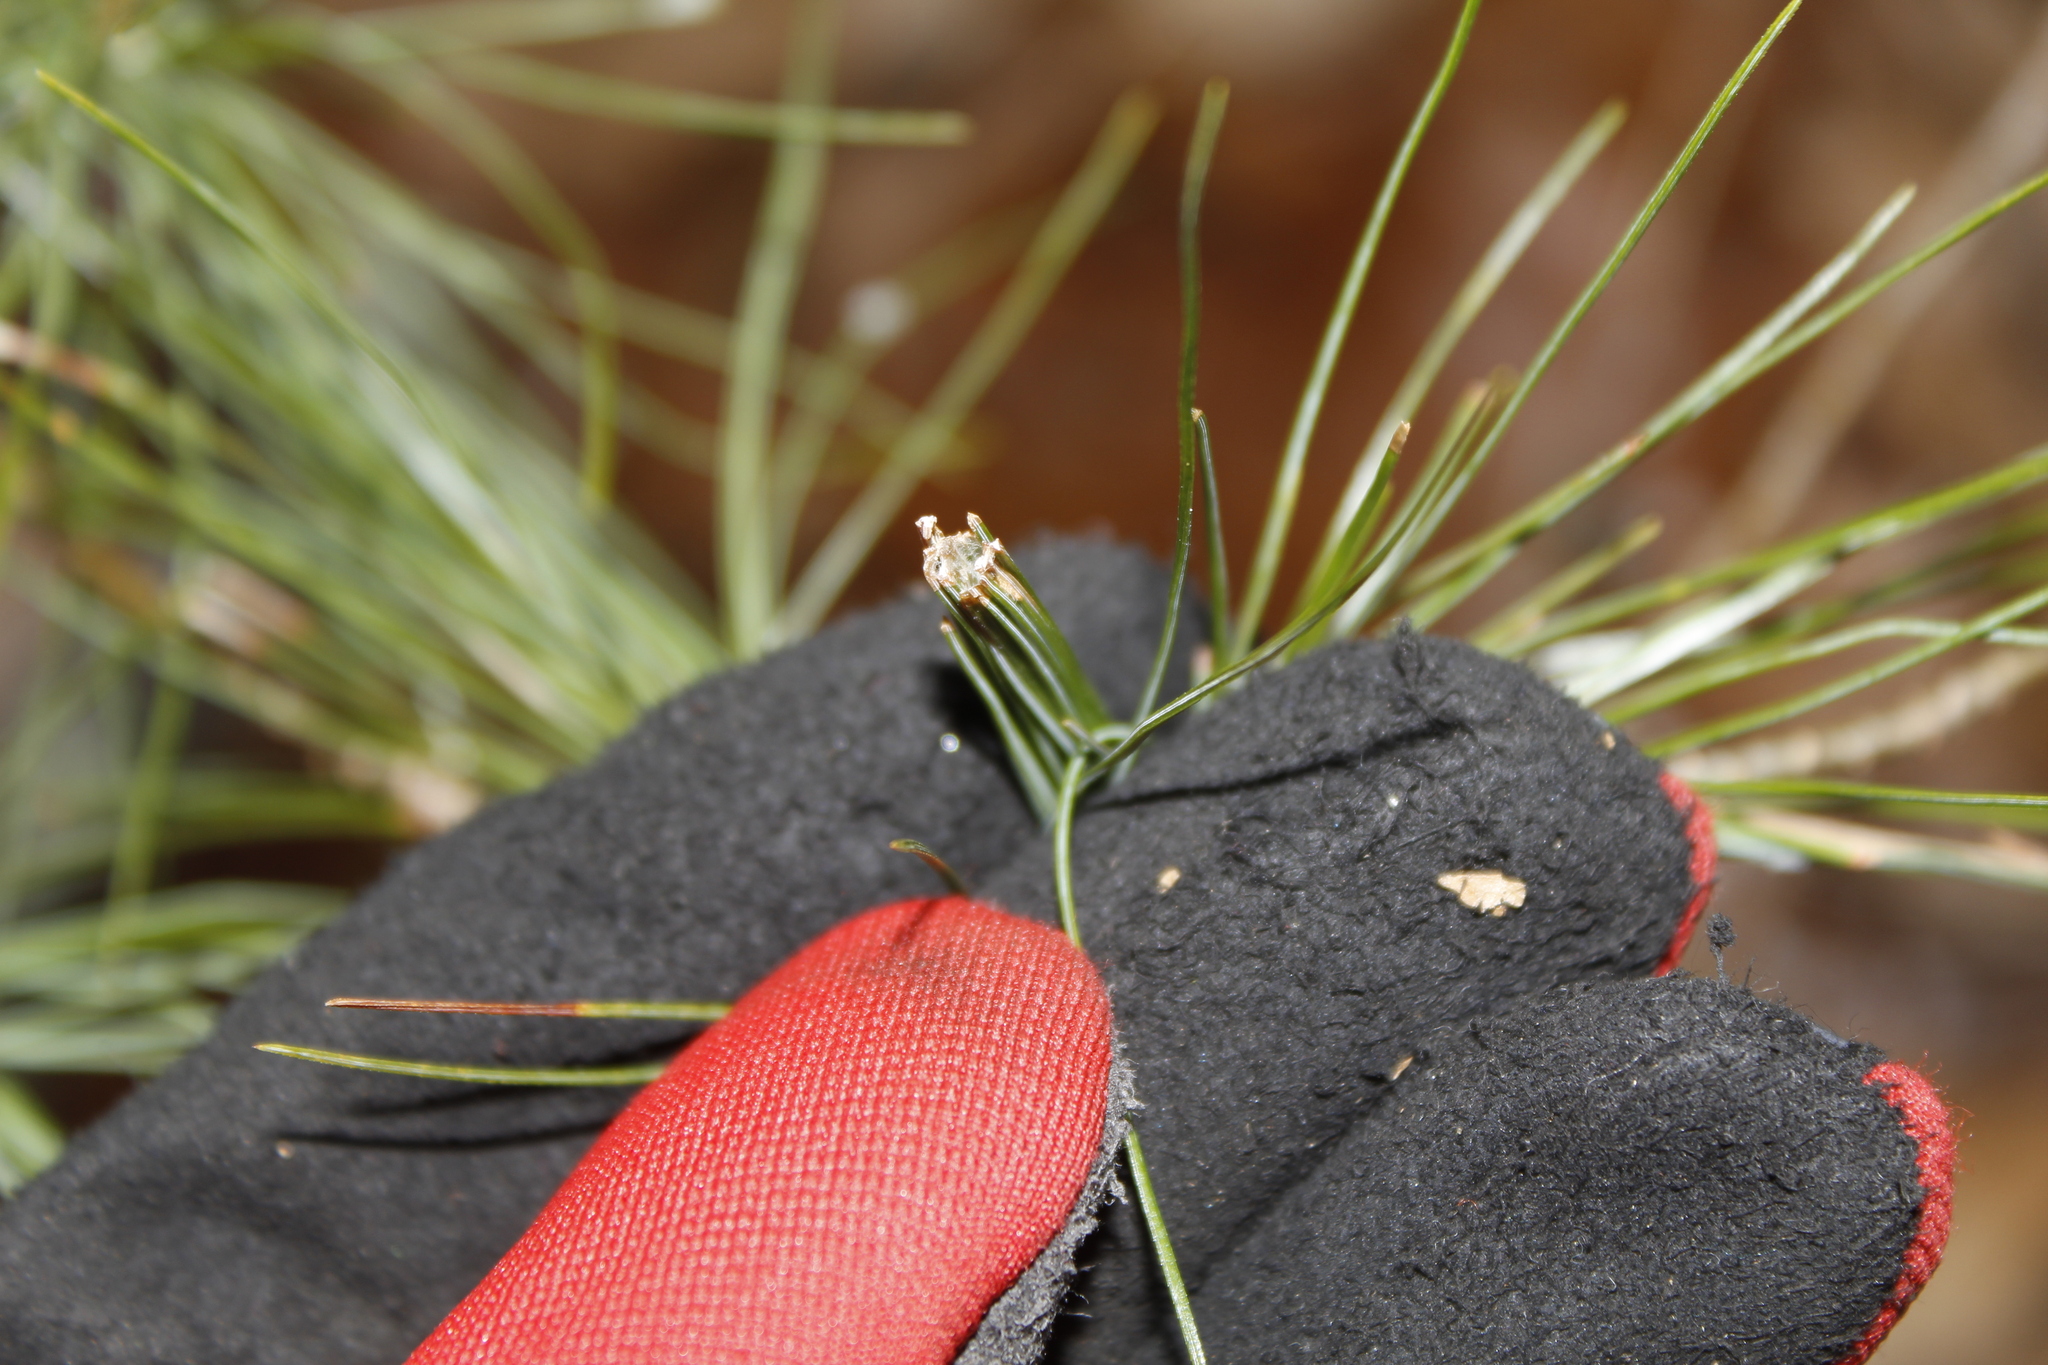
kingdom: Animalia
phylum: Arthropoda
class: Insecta
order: Lepidoptera
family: Tortricidae
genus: Argyrotaenia
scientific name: Argyrotaenia pinatubana
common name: Pine tube moth
